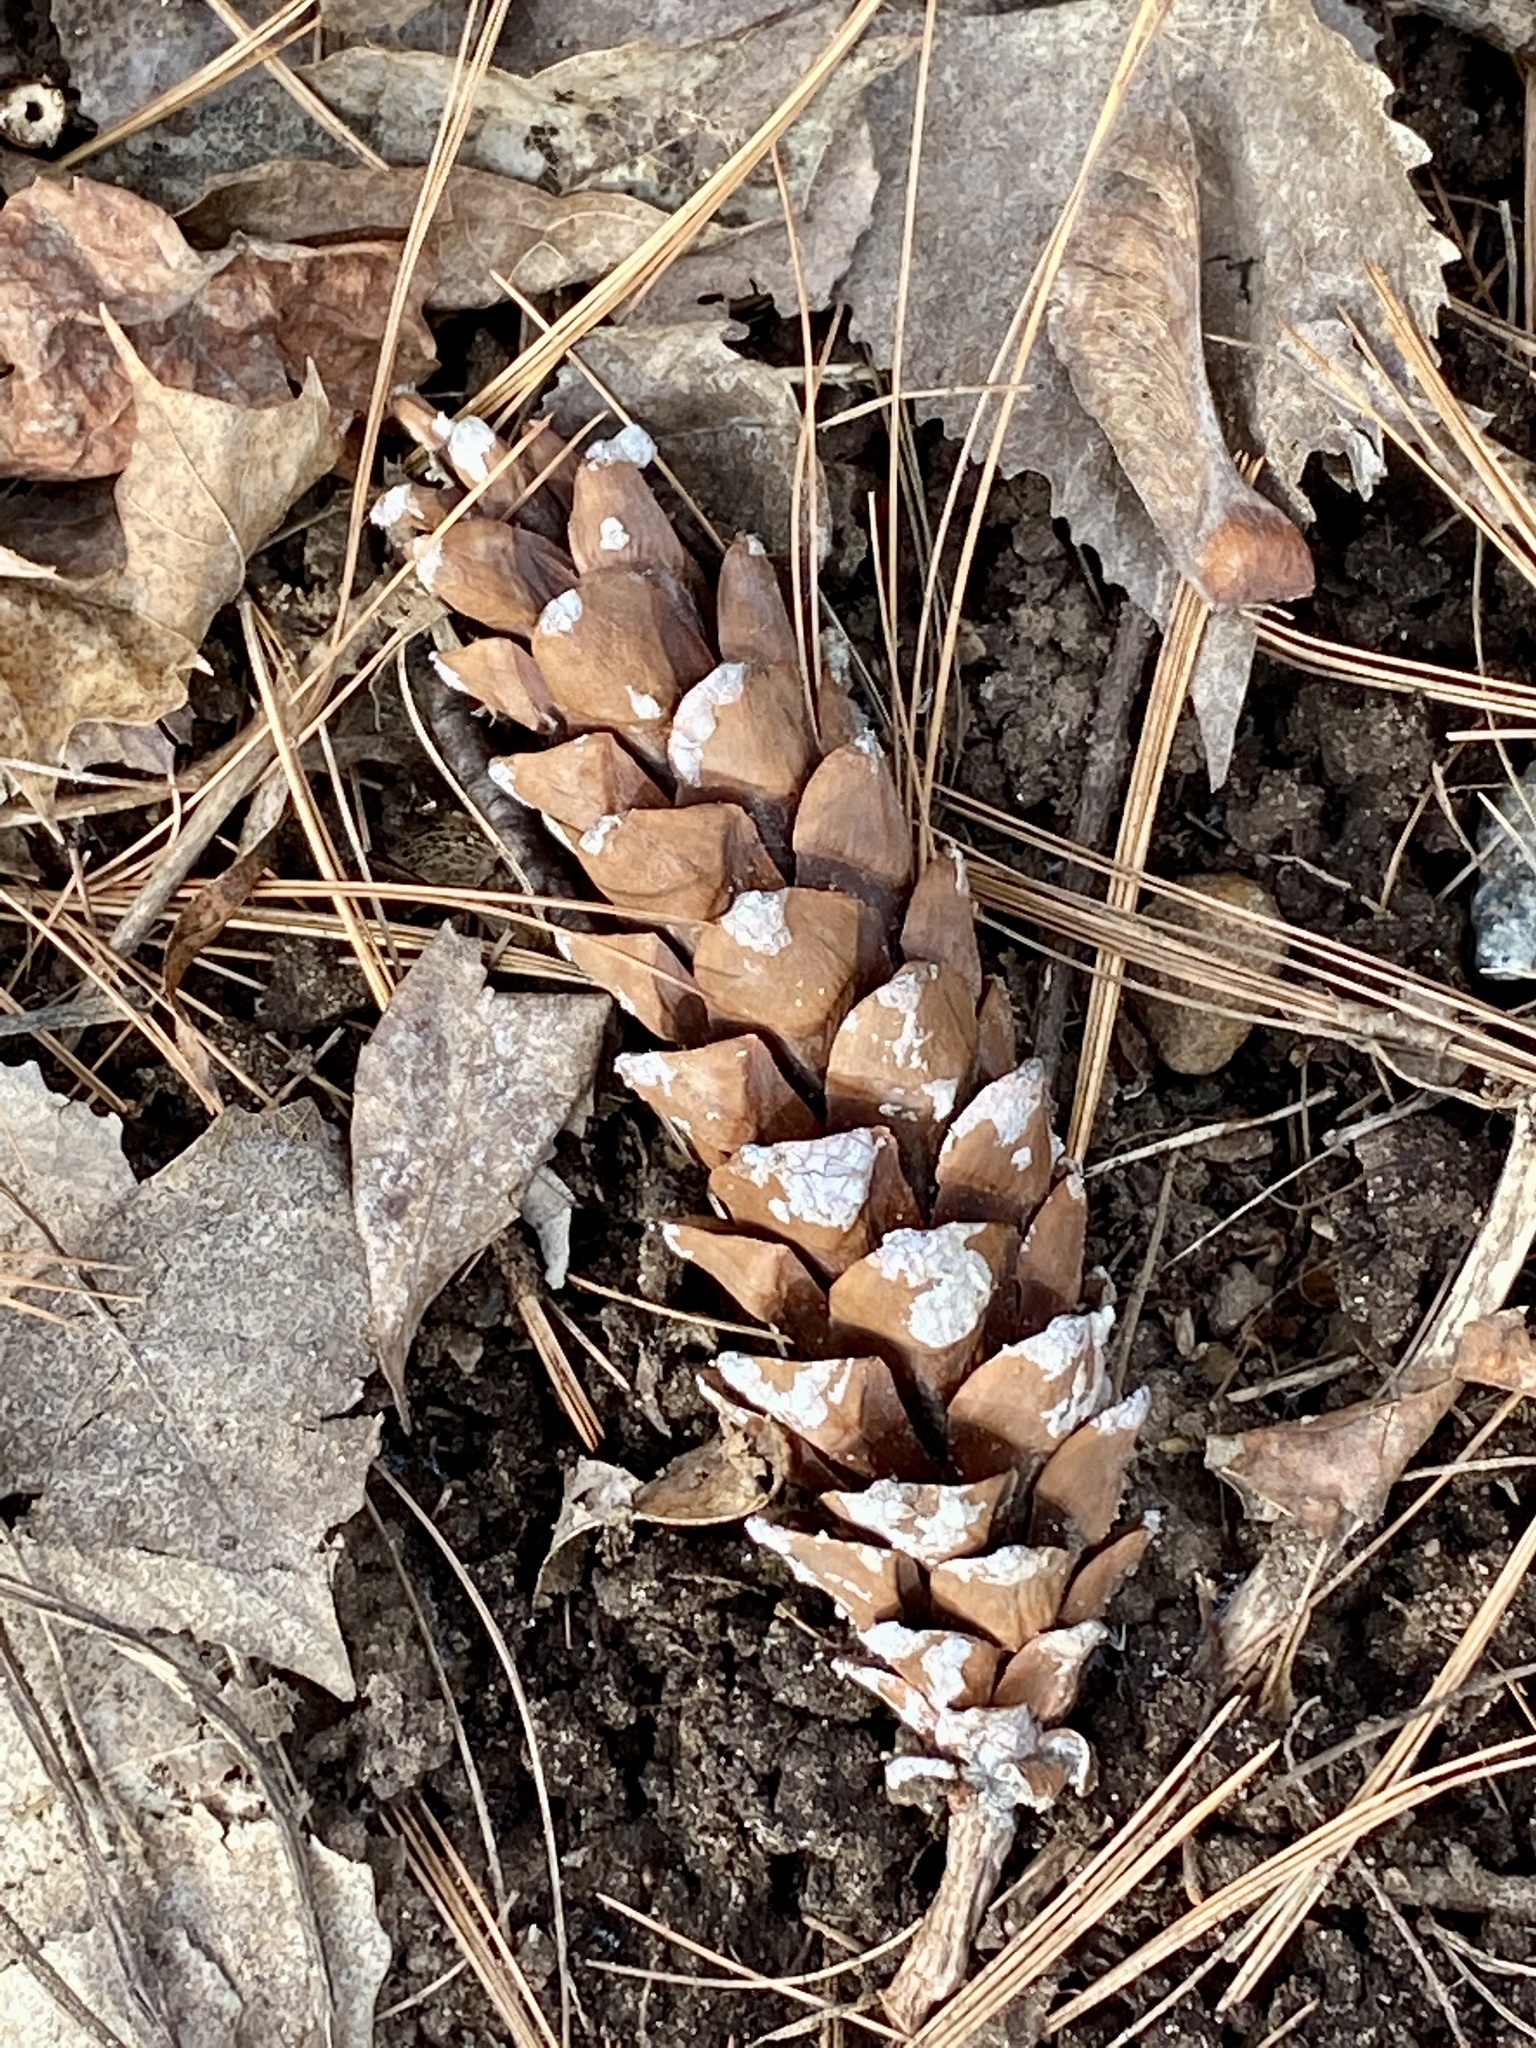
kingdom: Plantae
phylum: Tracheophyta
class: Pinopsida
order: Pinales
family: Pinaceae
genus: Pinus
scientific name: Pinus strobus
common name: Weymouth pine
